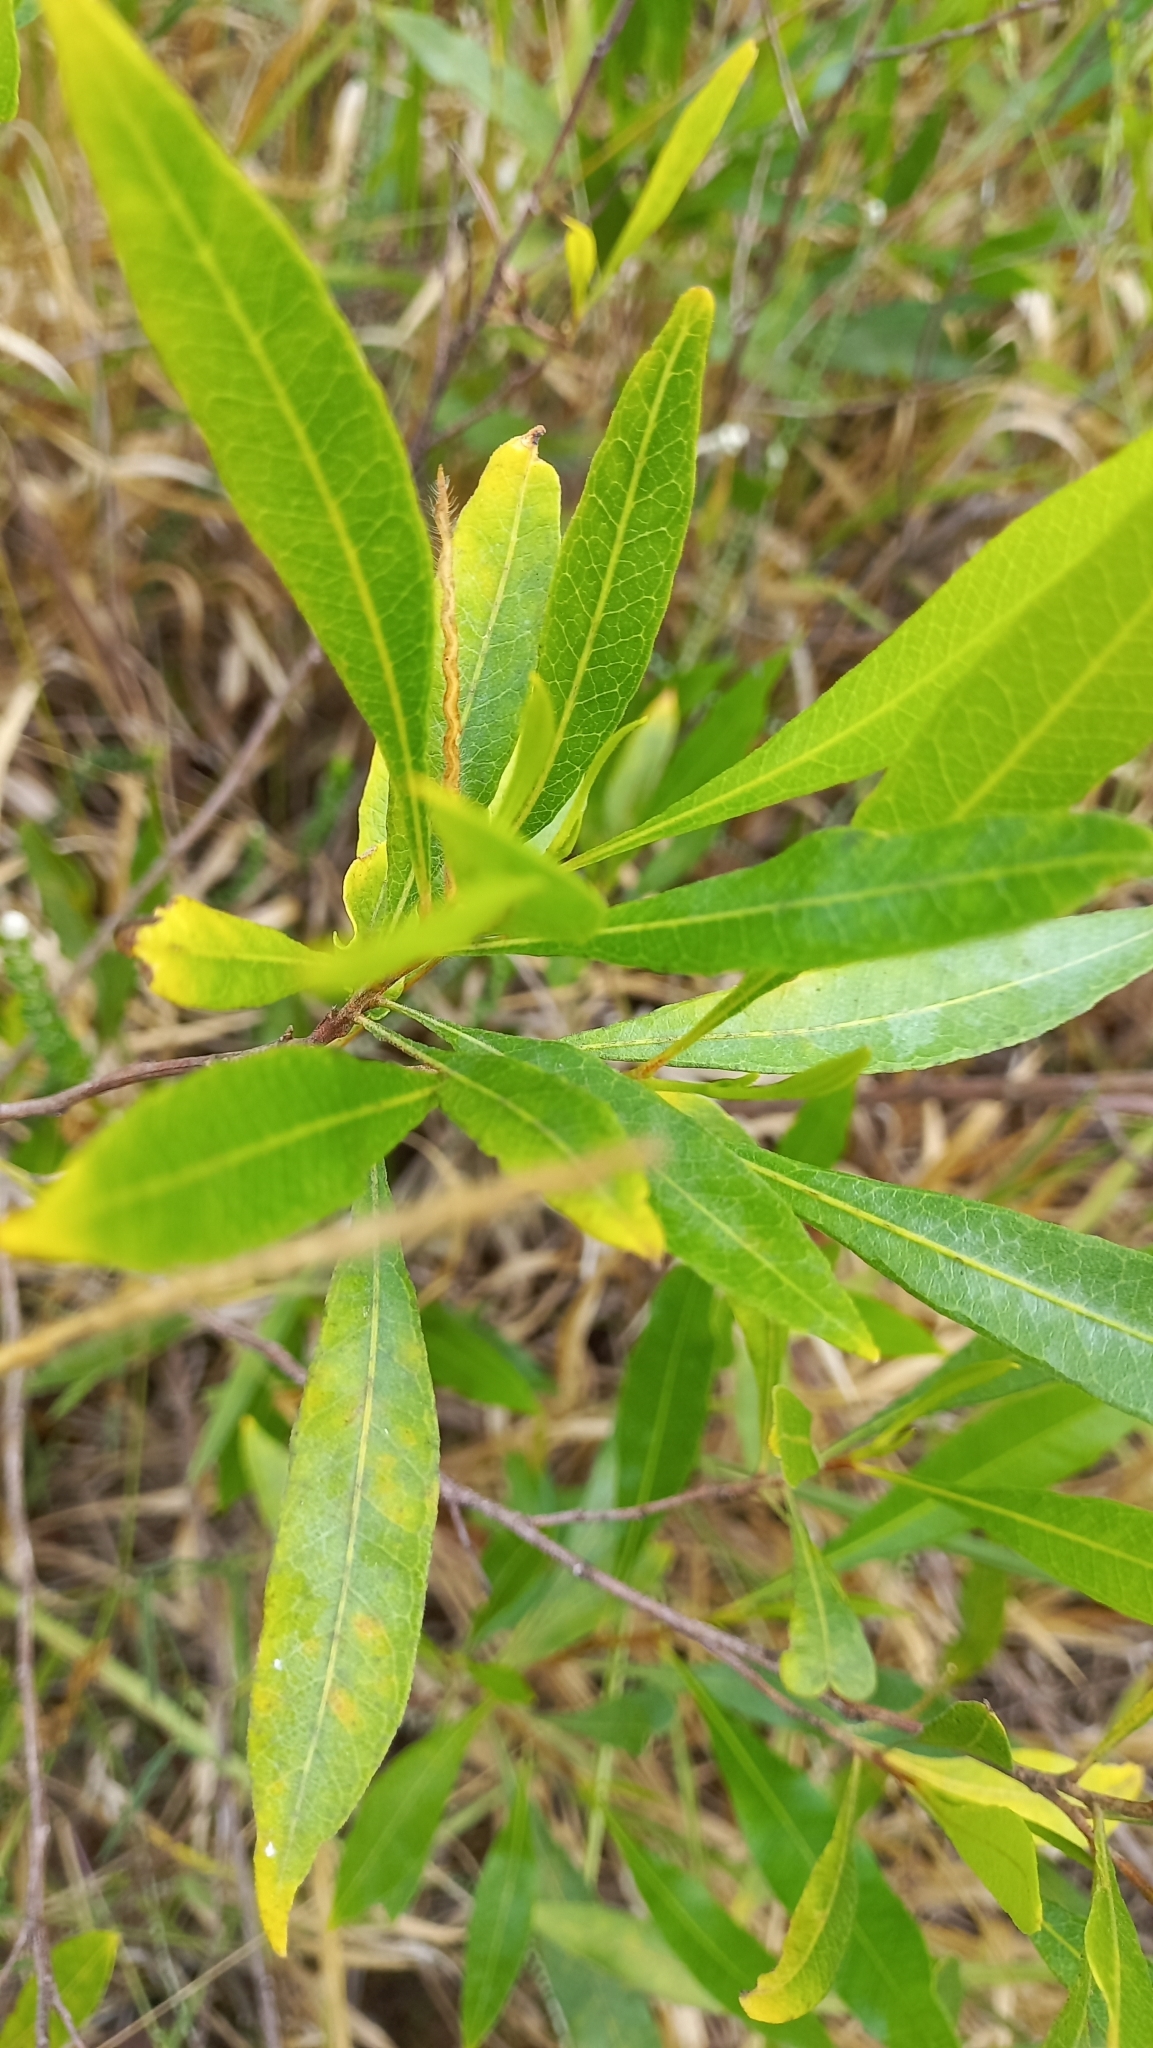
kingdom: Plantae
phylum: Tracheophyta
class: Magnoliopsida
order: Sapindales
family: Sapindaceae
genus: Dodonaea
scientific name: Dodonaea viscosa
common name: Hopbush
